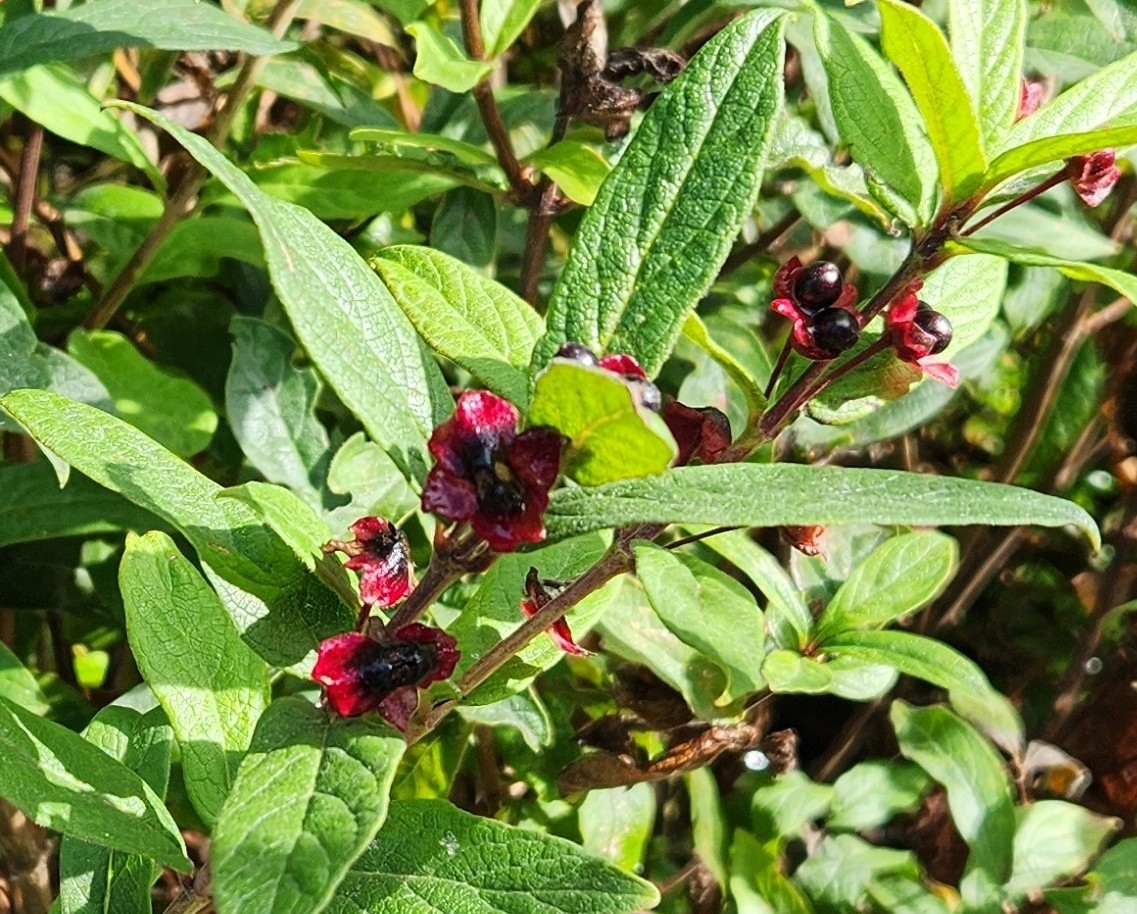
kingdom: Plantae
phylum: Tracheophyta
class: Magnoliopsida
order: Dipsacales
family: Caprifoliaceae
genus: Lonicera
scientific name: Lonicera involucrata
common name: Californian honeysuckle
